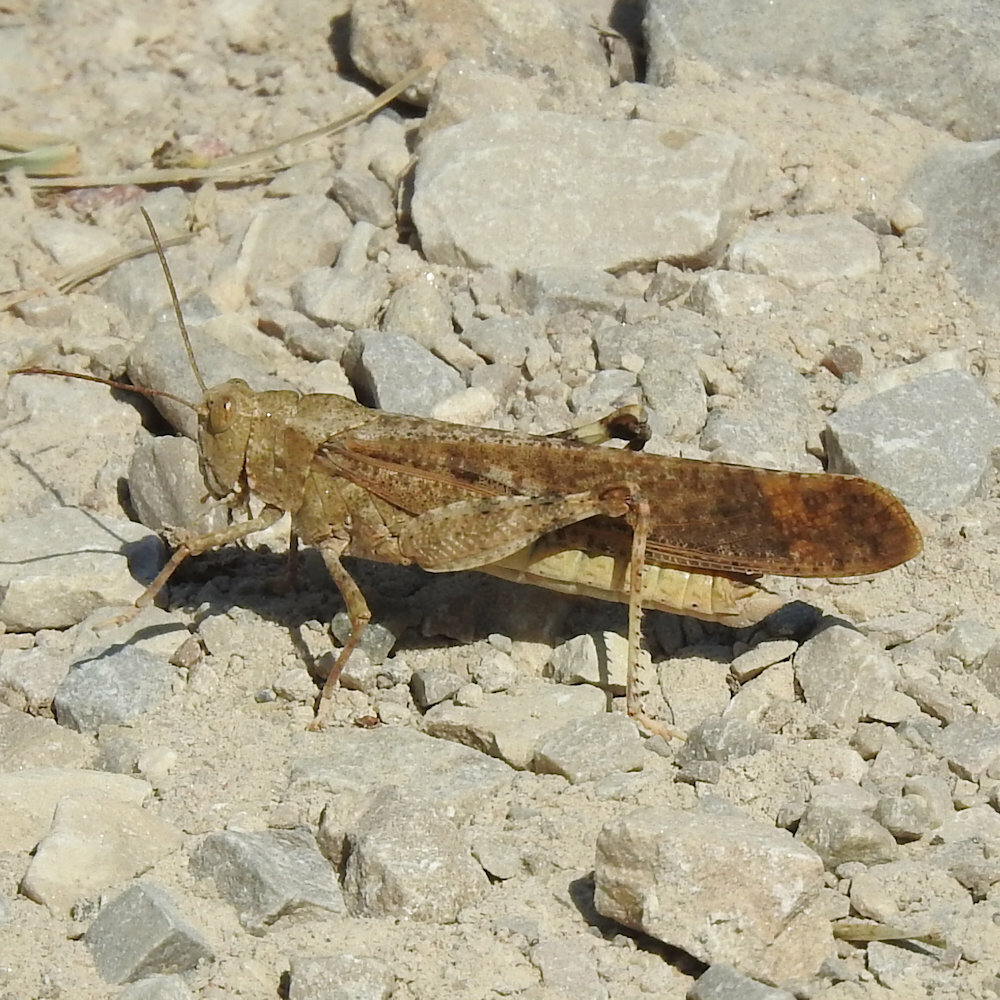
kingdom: Animalia
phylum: Arthropoda
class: Insecta
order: Orthoptera
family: Acrididae
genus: Dissosteira
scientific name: Dissosteira carolina
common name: Carolina grasshopper
